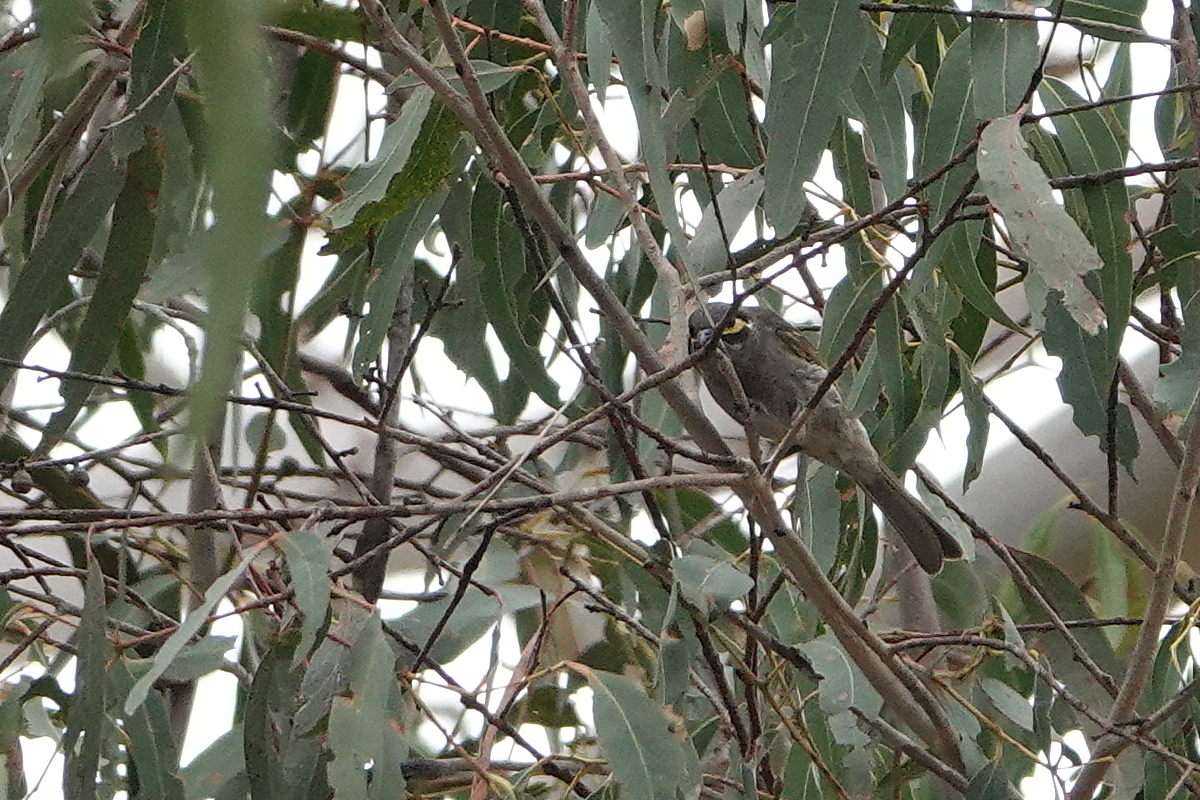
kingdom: Animalia
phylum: Chordata
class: Aves
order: Passeriformes
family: Meliphagidae
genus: Caligavis
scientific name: Caligavis chrysops
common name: Yellow-faced honeyeater
